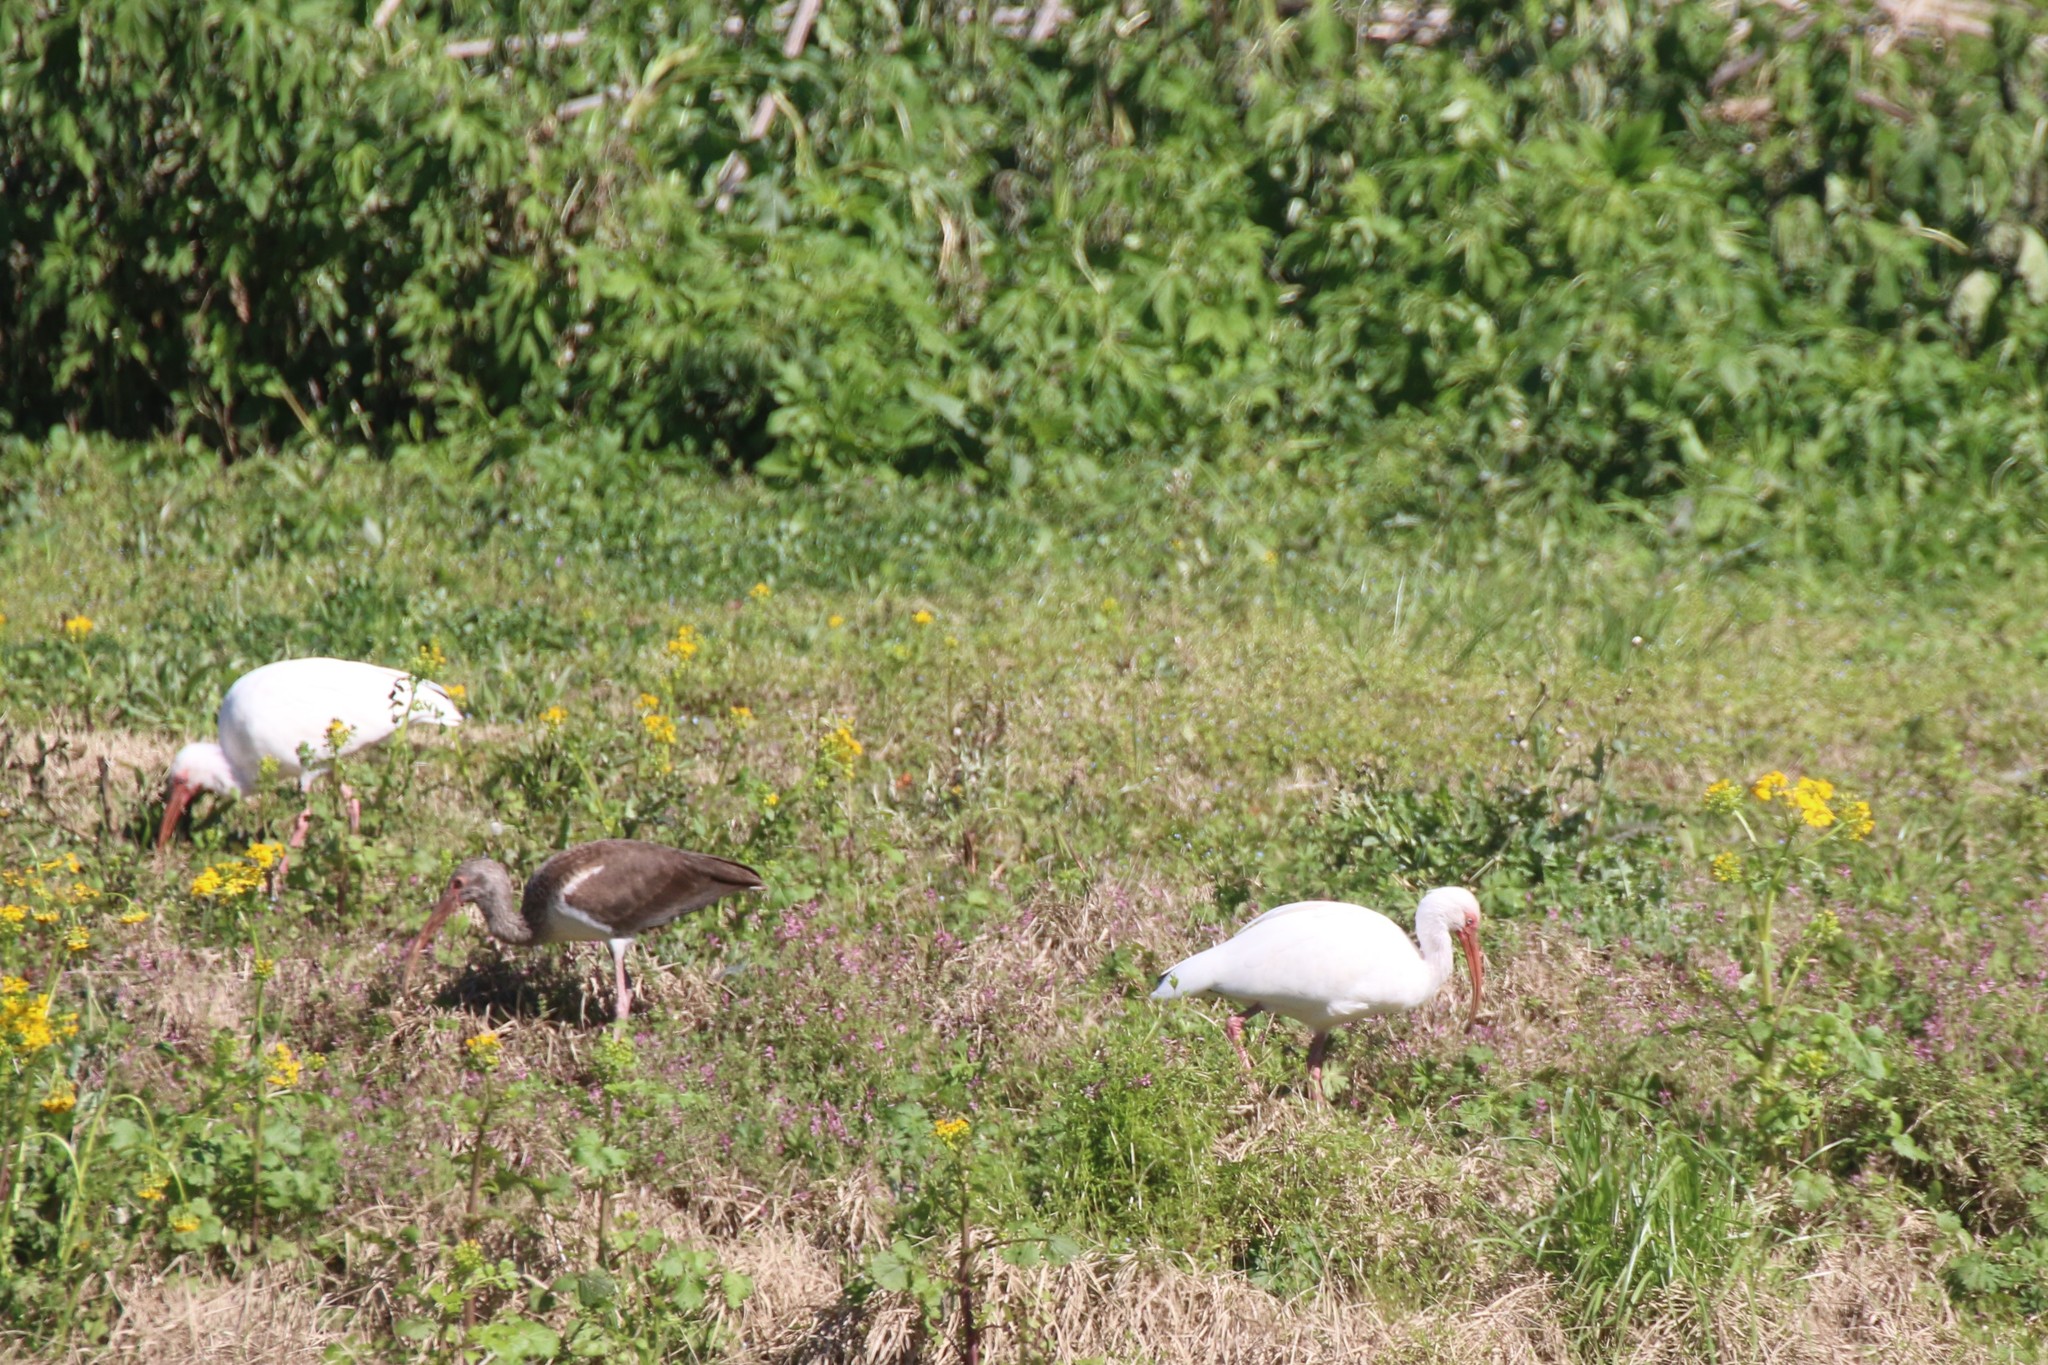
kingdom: Animalia
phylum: Chordata
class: Aves
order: Pelecaniformes
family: Threskiornithidae
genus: Eudocimus
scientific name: Eudocimus albus
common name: White ibis
